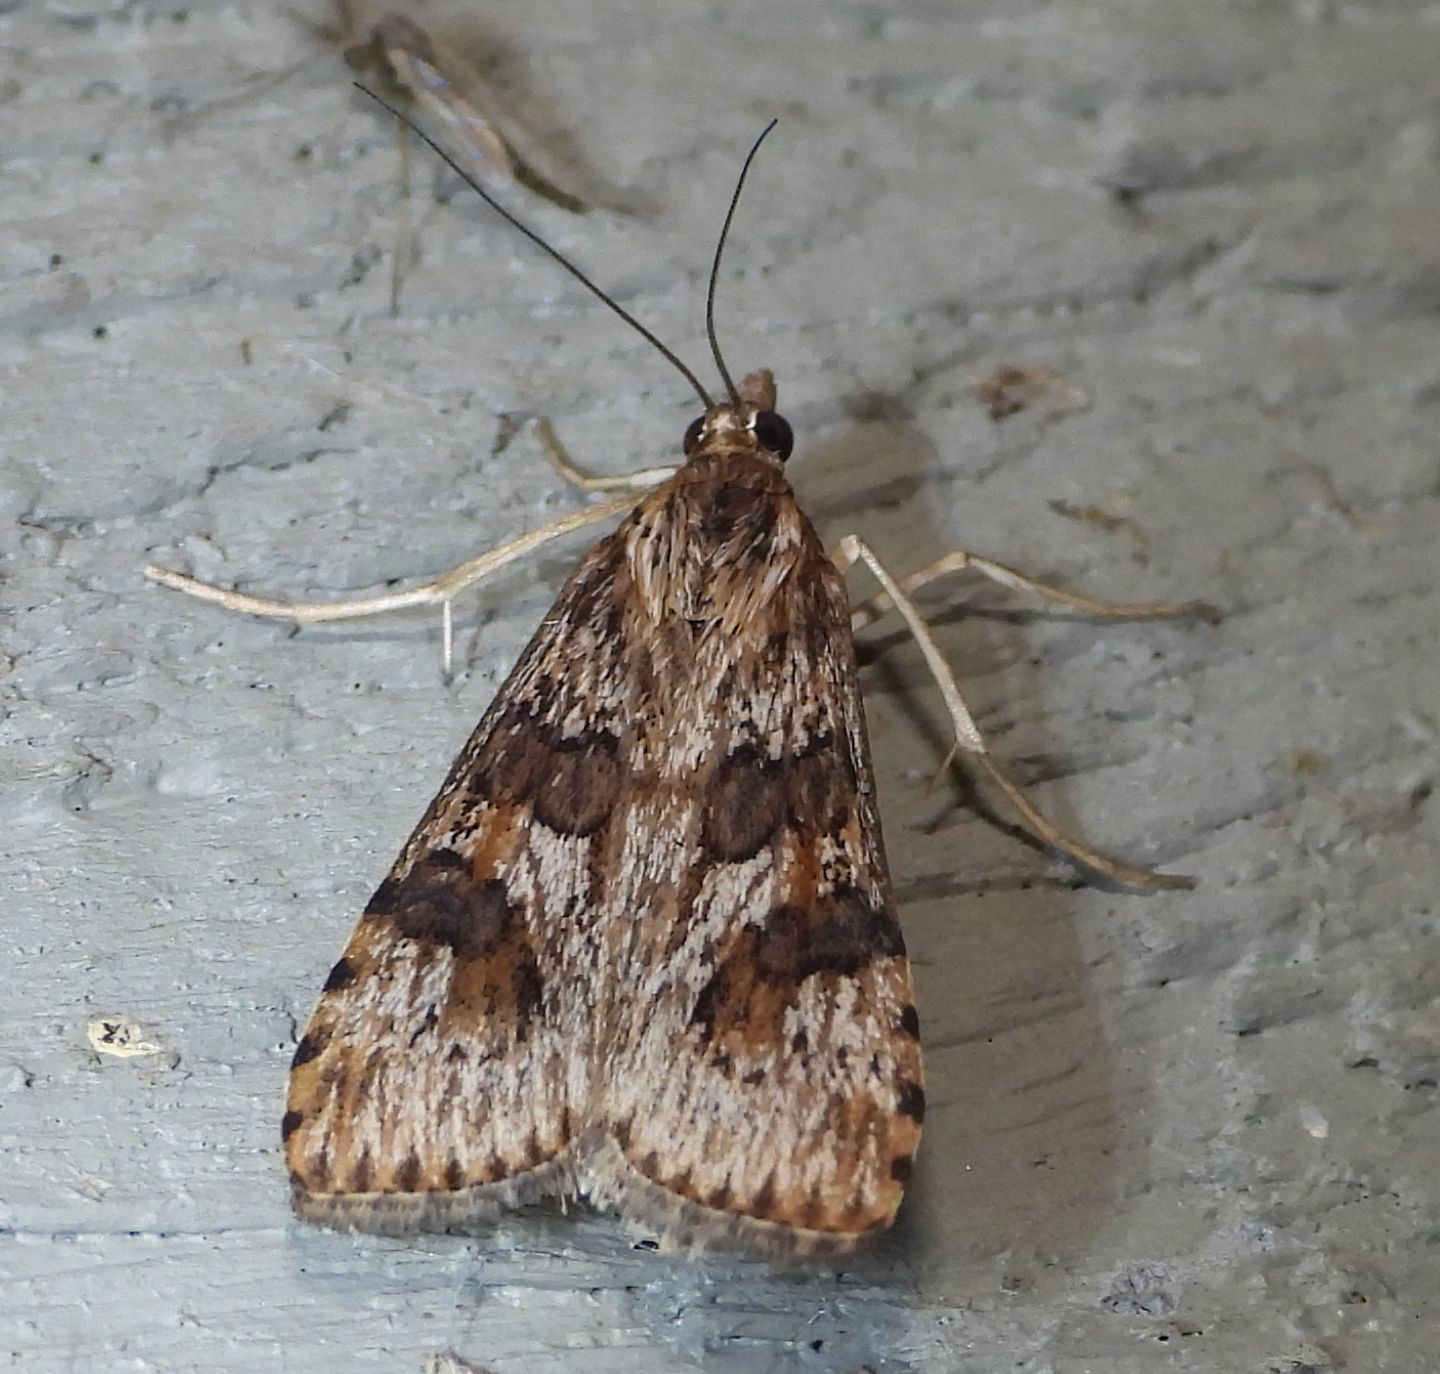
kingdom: Animalia
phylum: Arthropoda
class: Insecta
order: Lepidoptera
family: Crambidae
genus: Nomophila
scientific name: Nomophila nearctica
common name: American rush veneer
